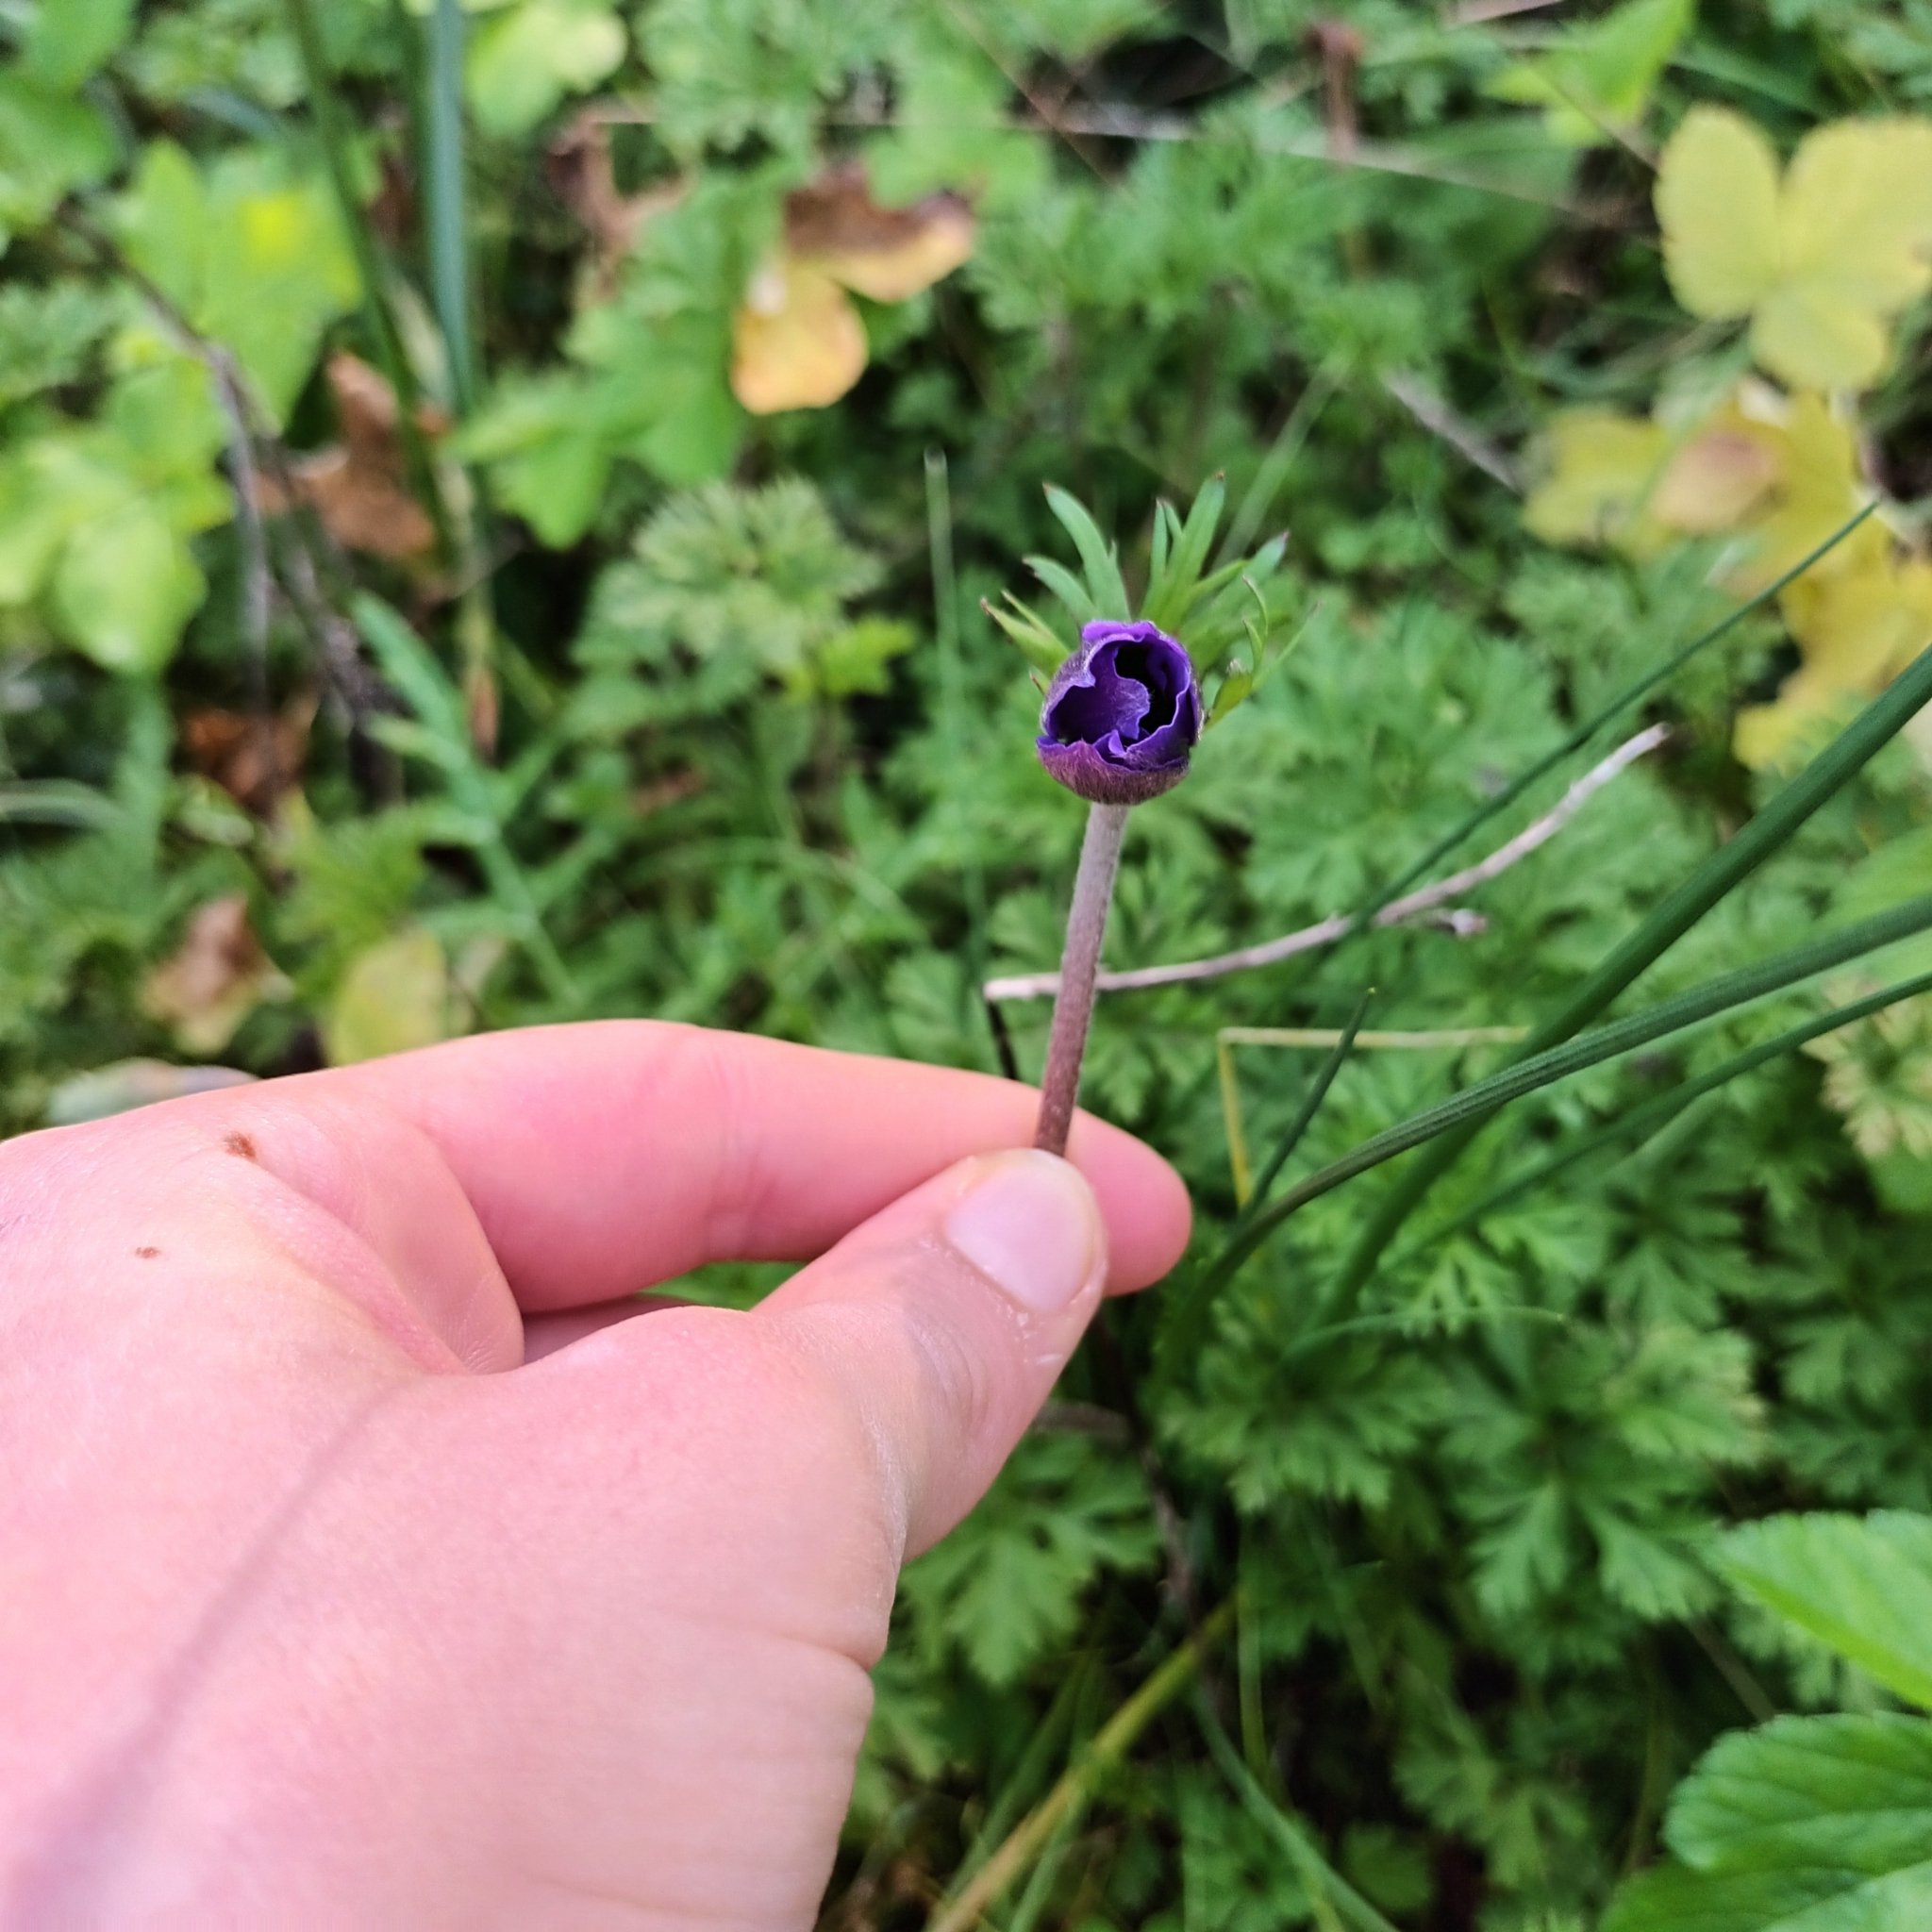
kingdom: Plantae
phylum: Tracheophyta
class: Magnoliopsida
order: Ranunculales
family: Ranunculaceae
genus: Anemone
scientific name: Anemone coronaria
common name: Poppy anemone
